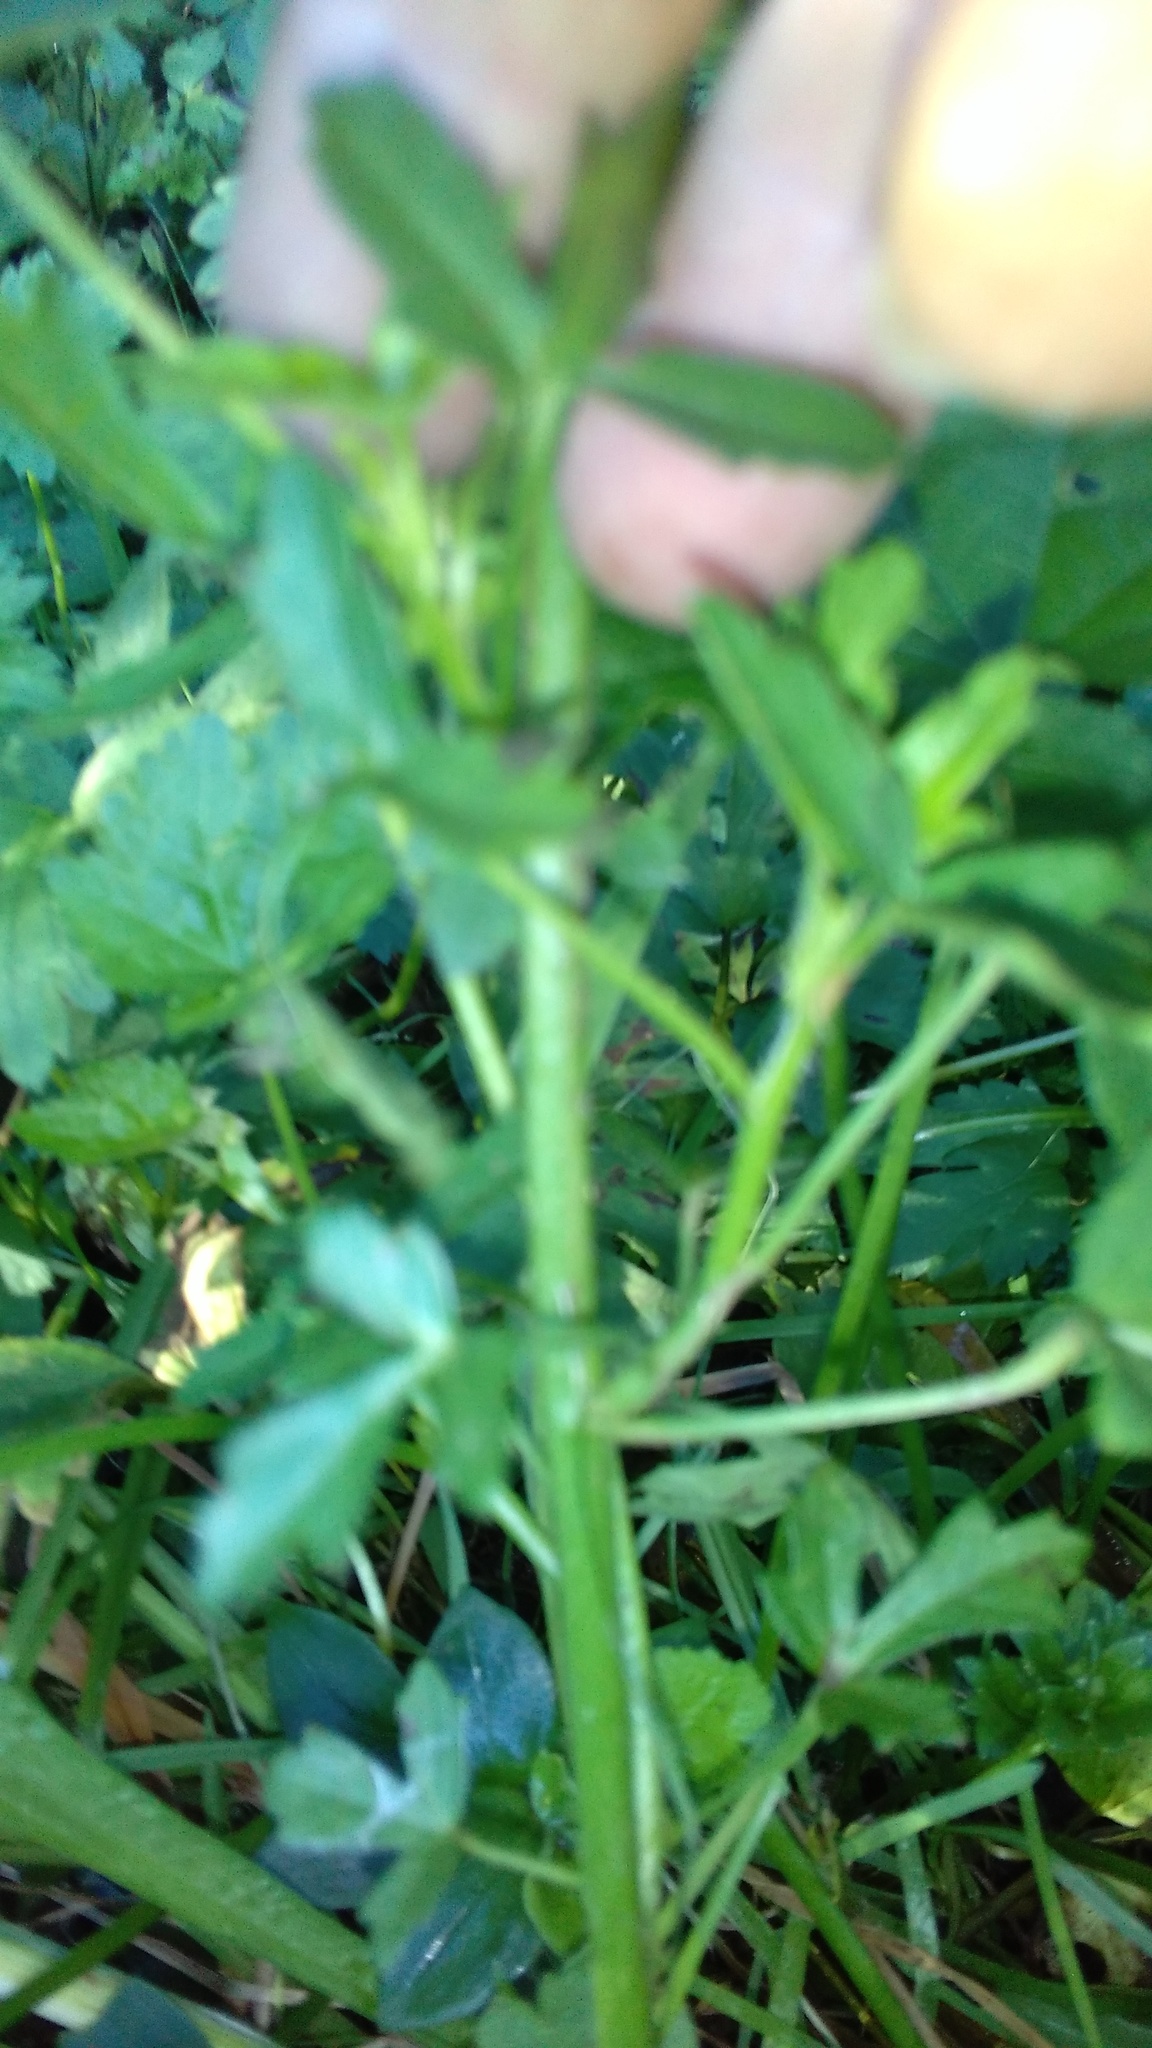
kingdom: Plantae
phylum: Tracheophyta
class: Magnoliopsida
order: Malvales
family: Malvaceae
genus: Hibiscus
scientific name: Hibiscus trionum
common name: Bladder ketmia
